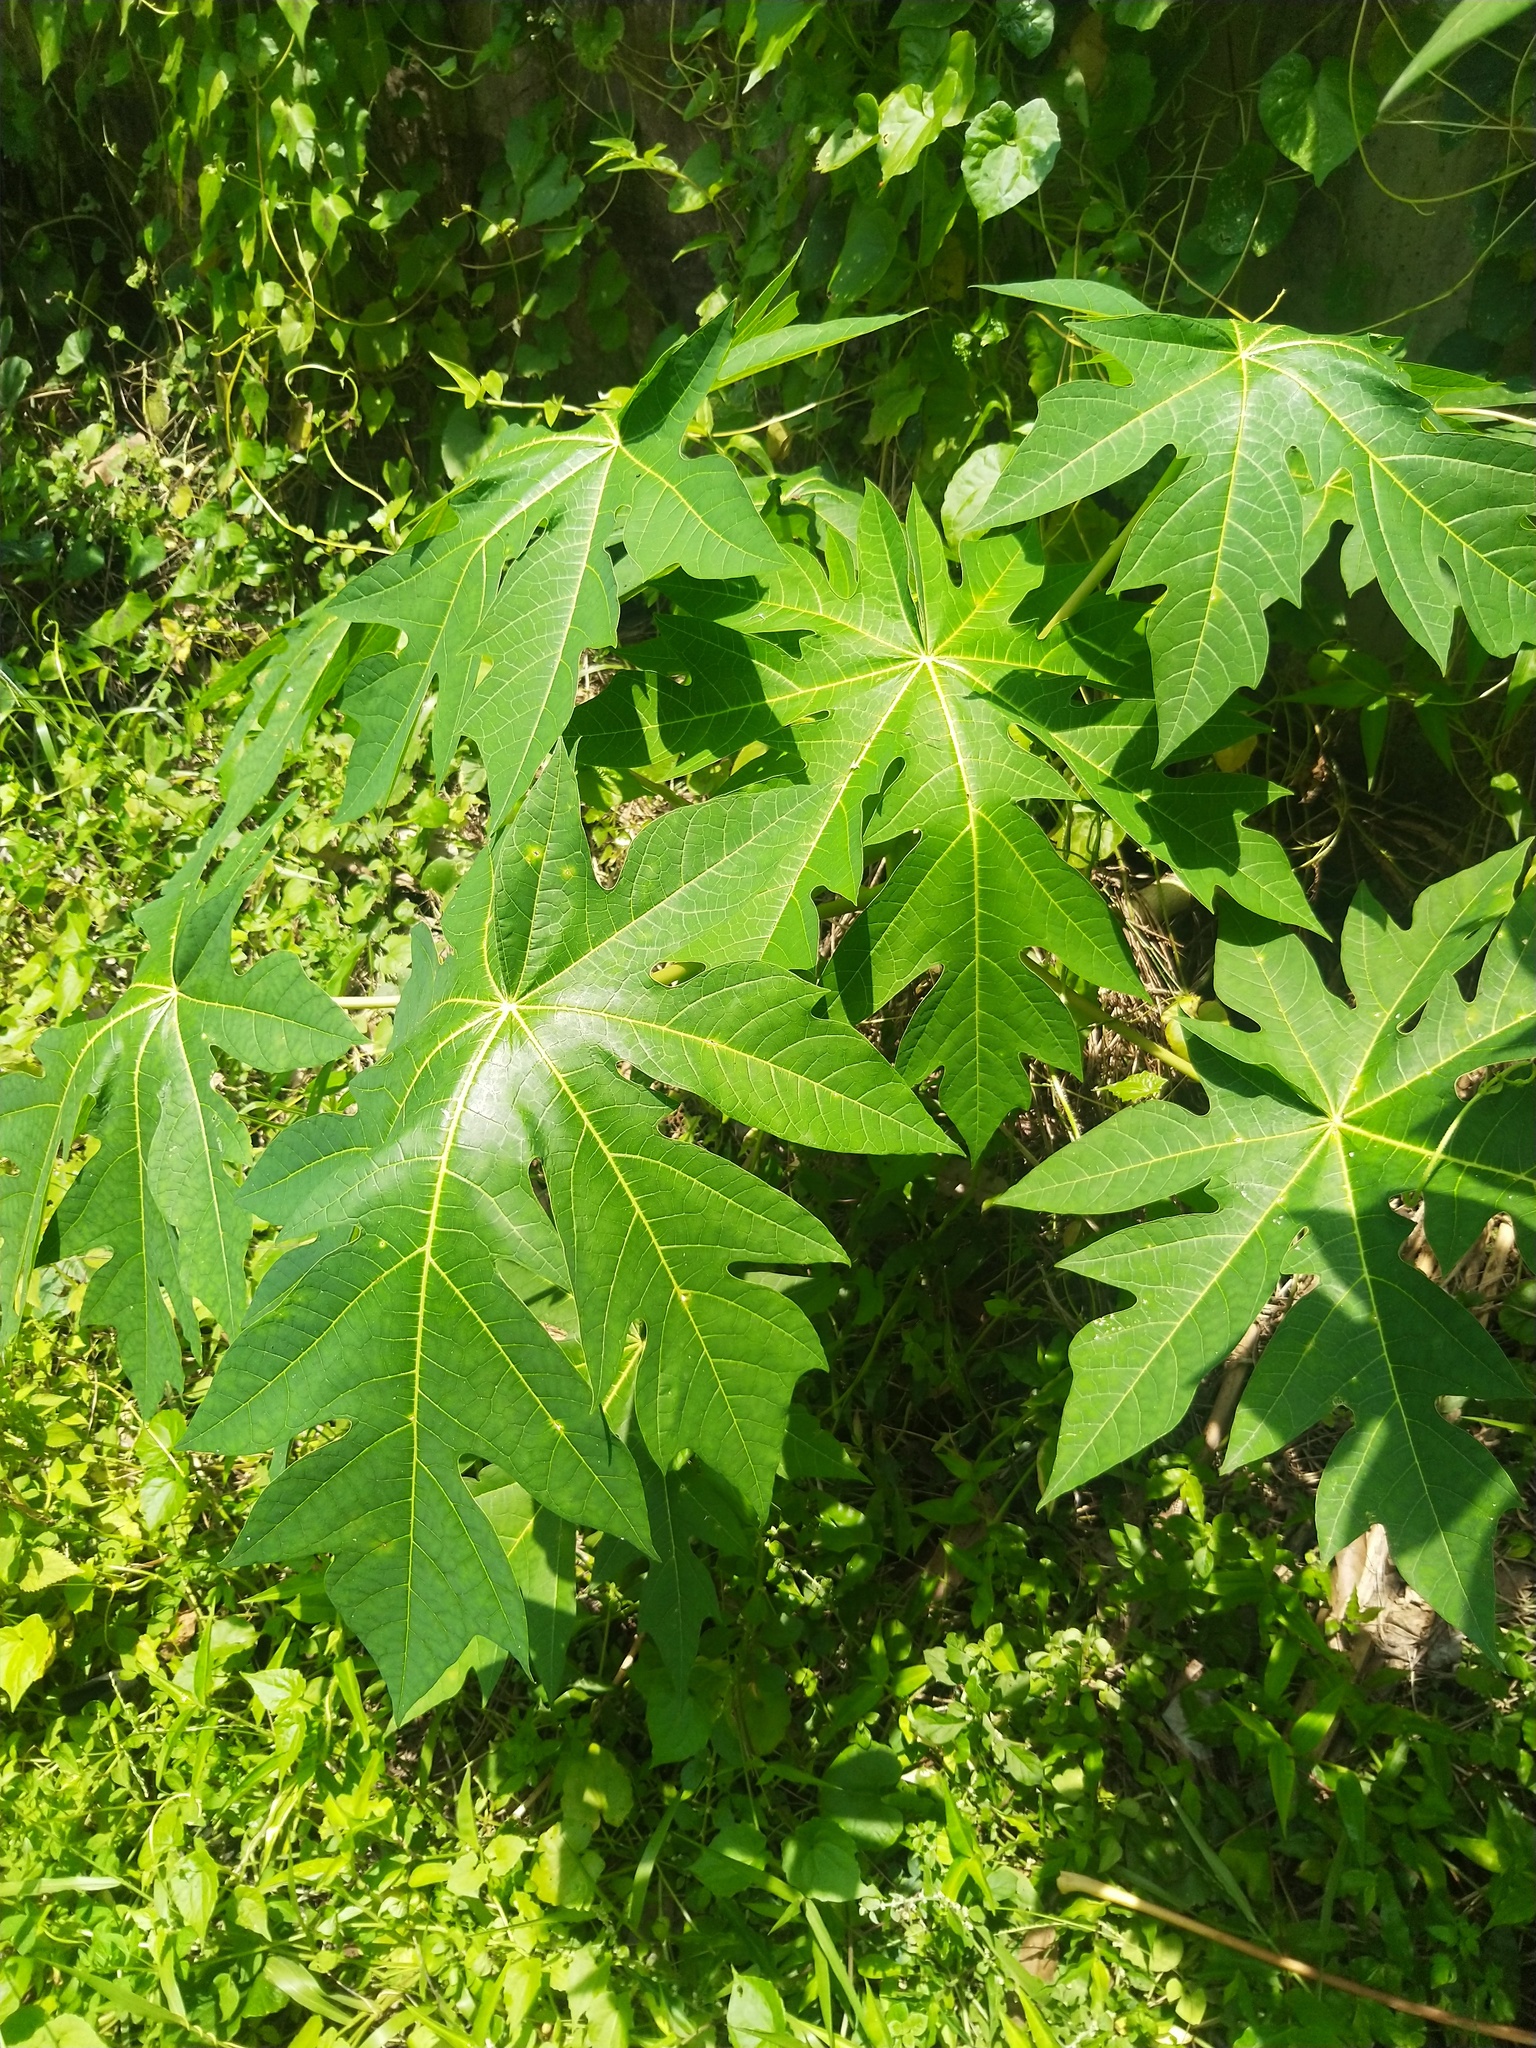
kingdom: Plantae
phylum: Tracheophyta
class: Magnoliopsida
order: Brassicales
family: Caricaceae
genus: Carica
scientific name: Carica papaya
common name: Papaya
